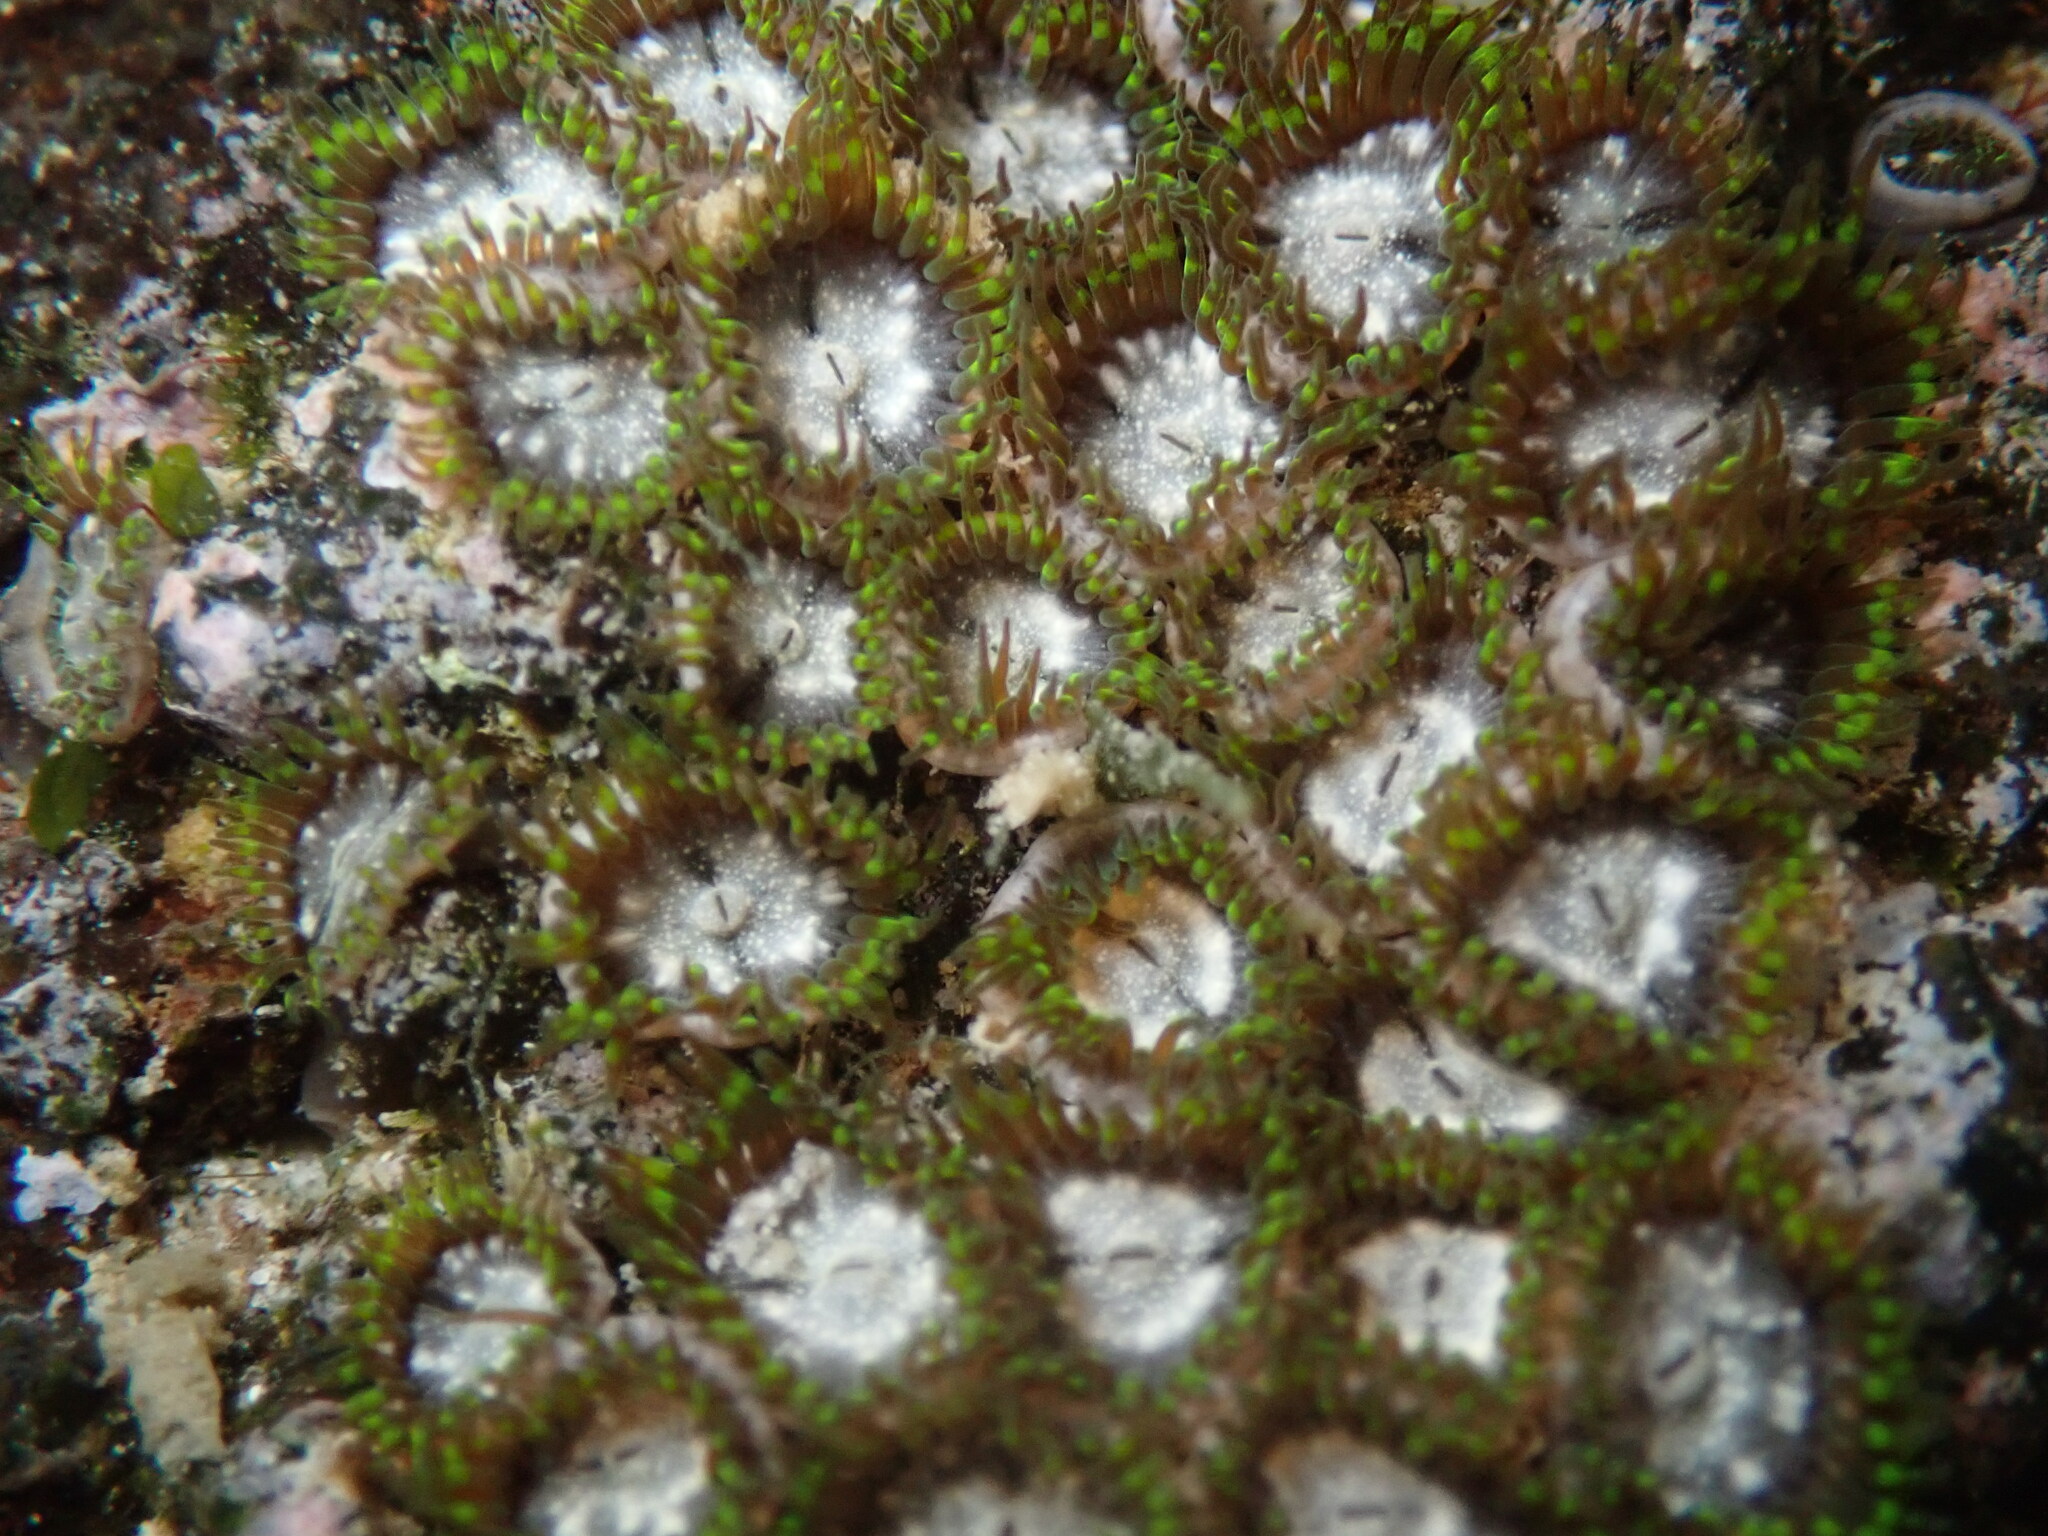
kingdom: Animalia
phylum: Cnidaria
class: Anthozoa
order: Zoantharia
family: Zoanthidae
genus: Zoanthus
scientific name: Zoanthus sansibaricus
